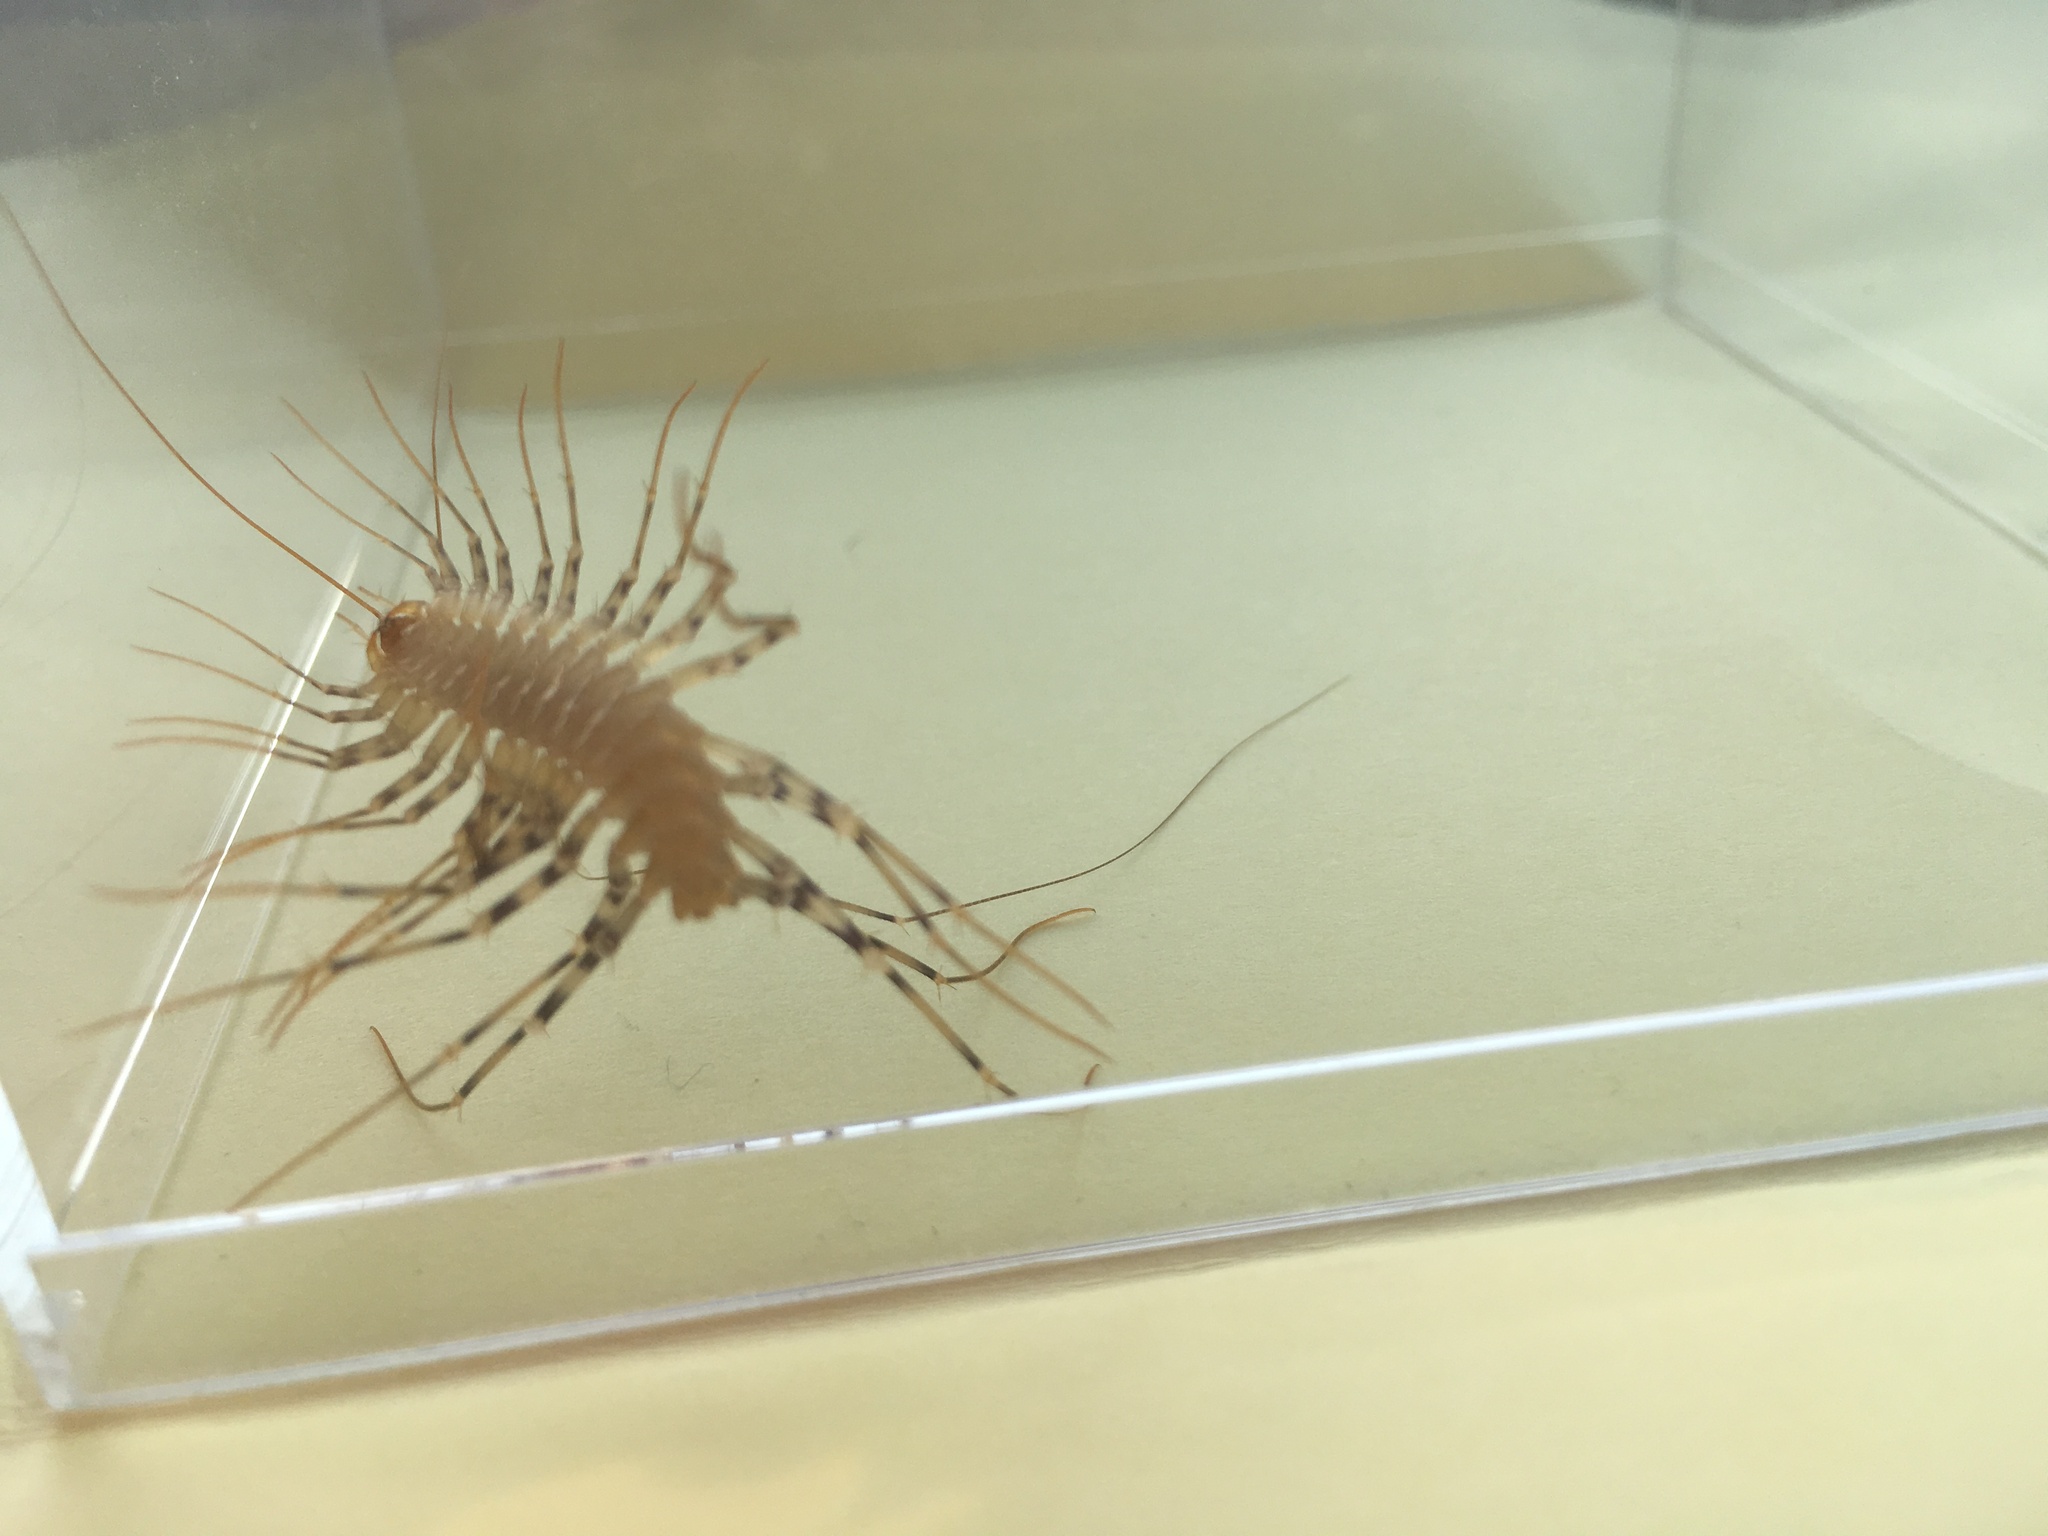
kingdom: Animalia
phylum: Arthropoda
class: Chilopoda
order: Scutigeromorpha
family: Scutigeridae
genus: Scutigera
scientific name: Scutigera coleoptrata
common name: House centipede
